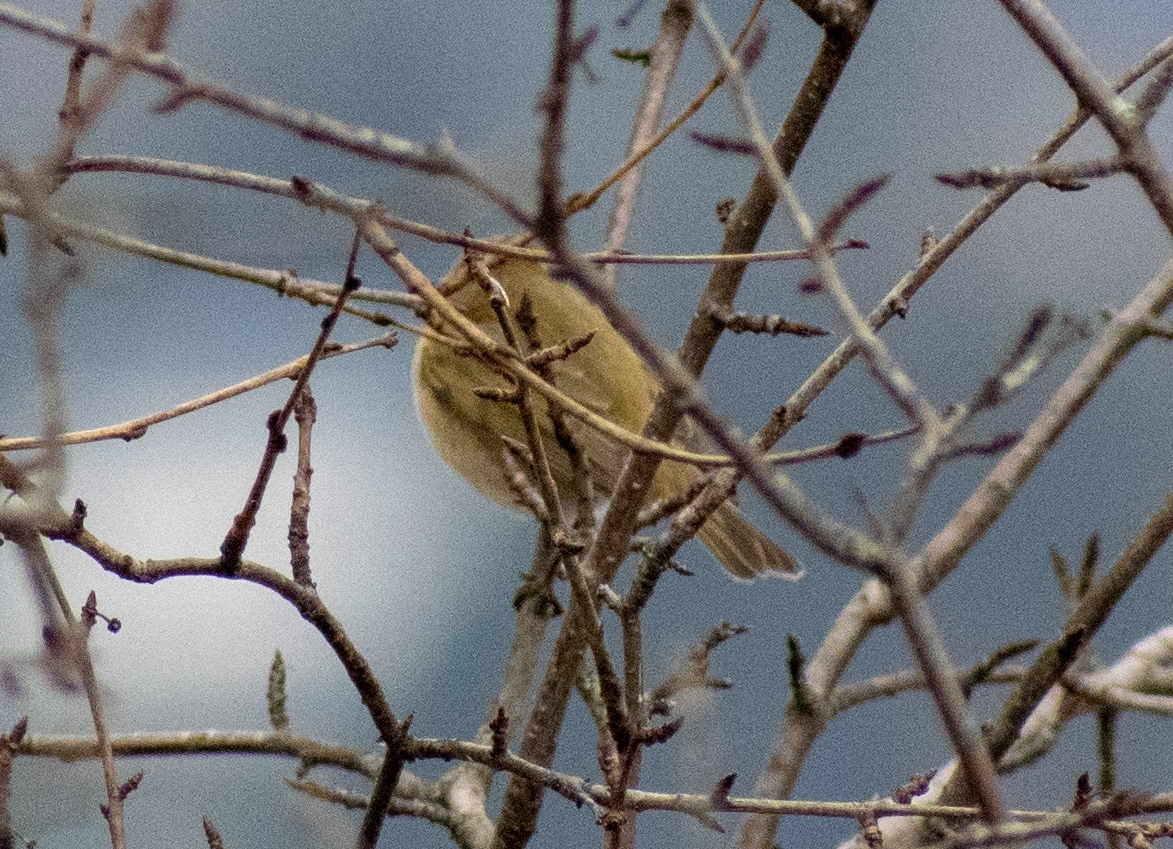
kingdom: Animalia
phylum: Chordata
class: Aves
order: Passeriformes
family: Phylloscopidae
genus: Phylloscopus
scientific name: Phylloscopus collybita
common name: Common chiffchaff
